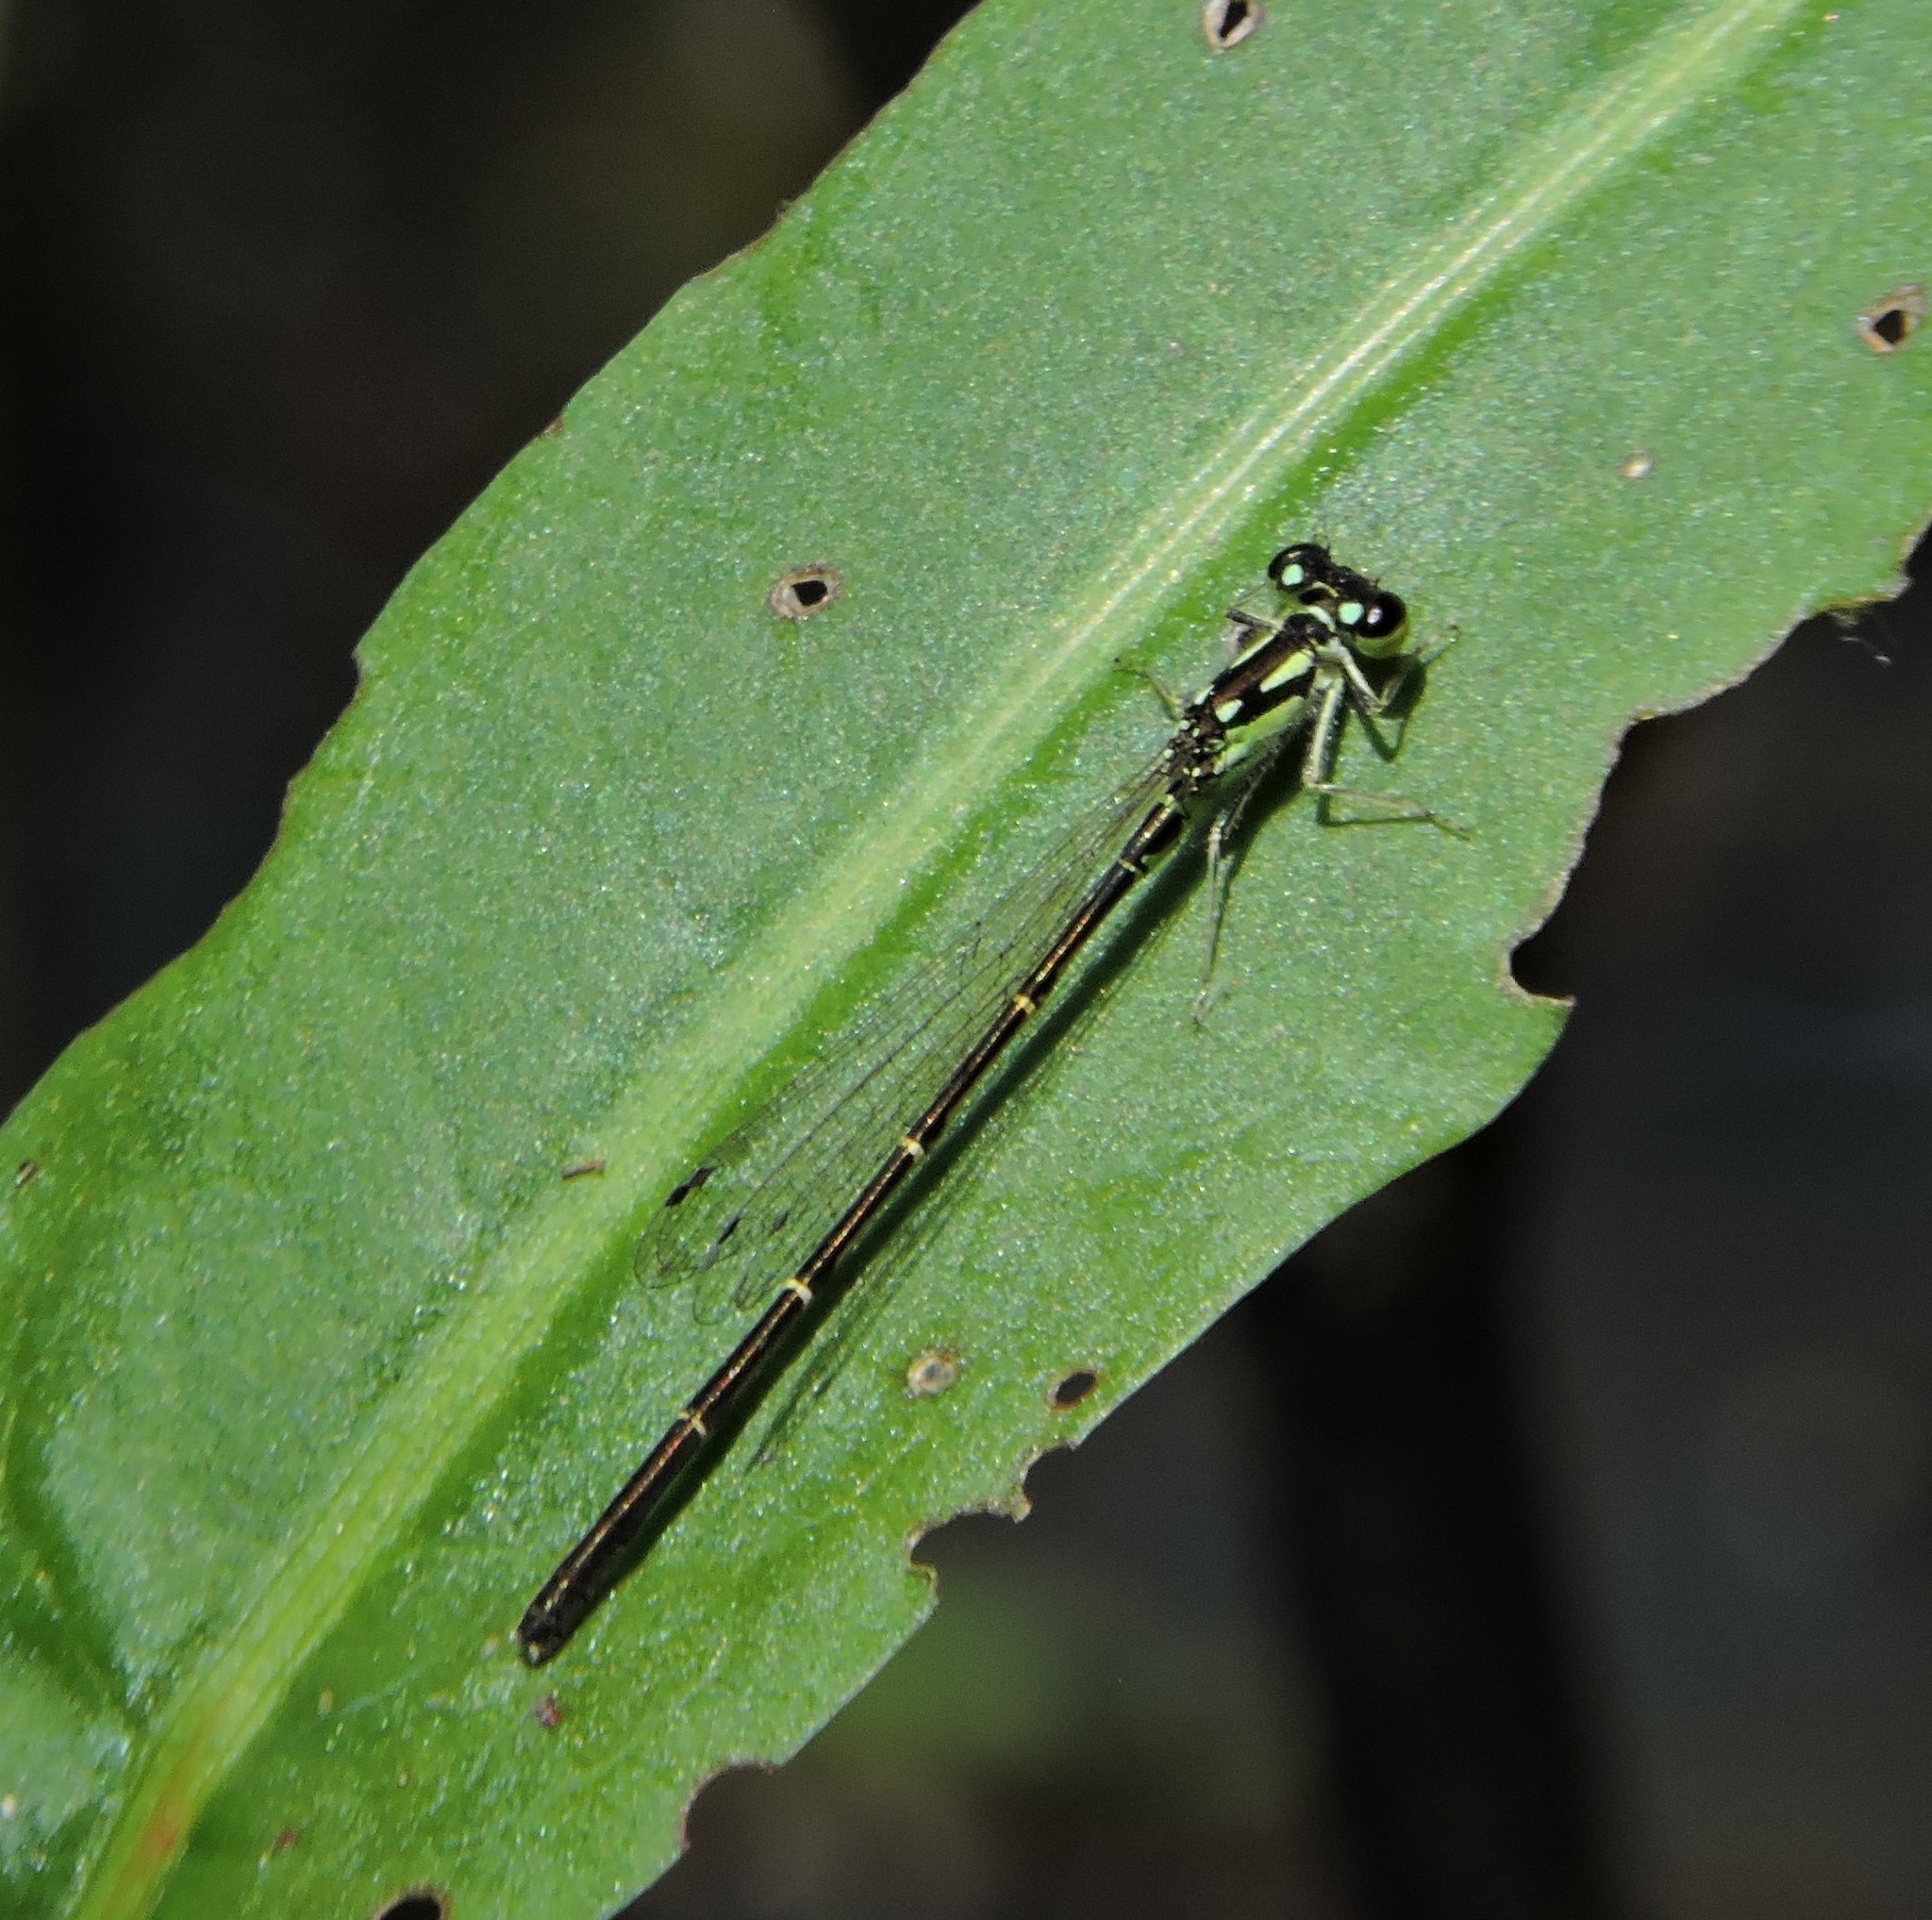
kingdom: Animalia
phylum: Arthropoda
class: Insecta
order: Odonata
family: Coenagrionidae
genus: Ischnura
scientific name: Ischnura posita
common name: Fragile forktail
